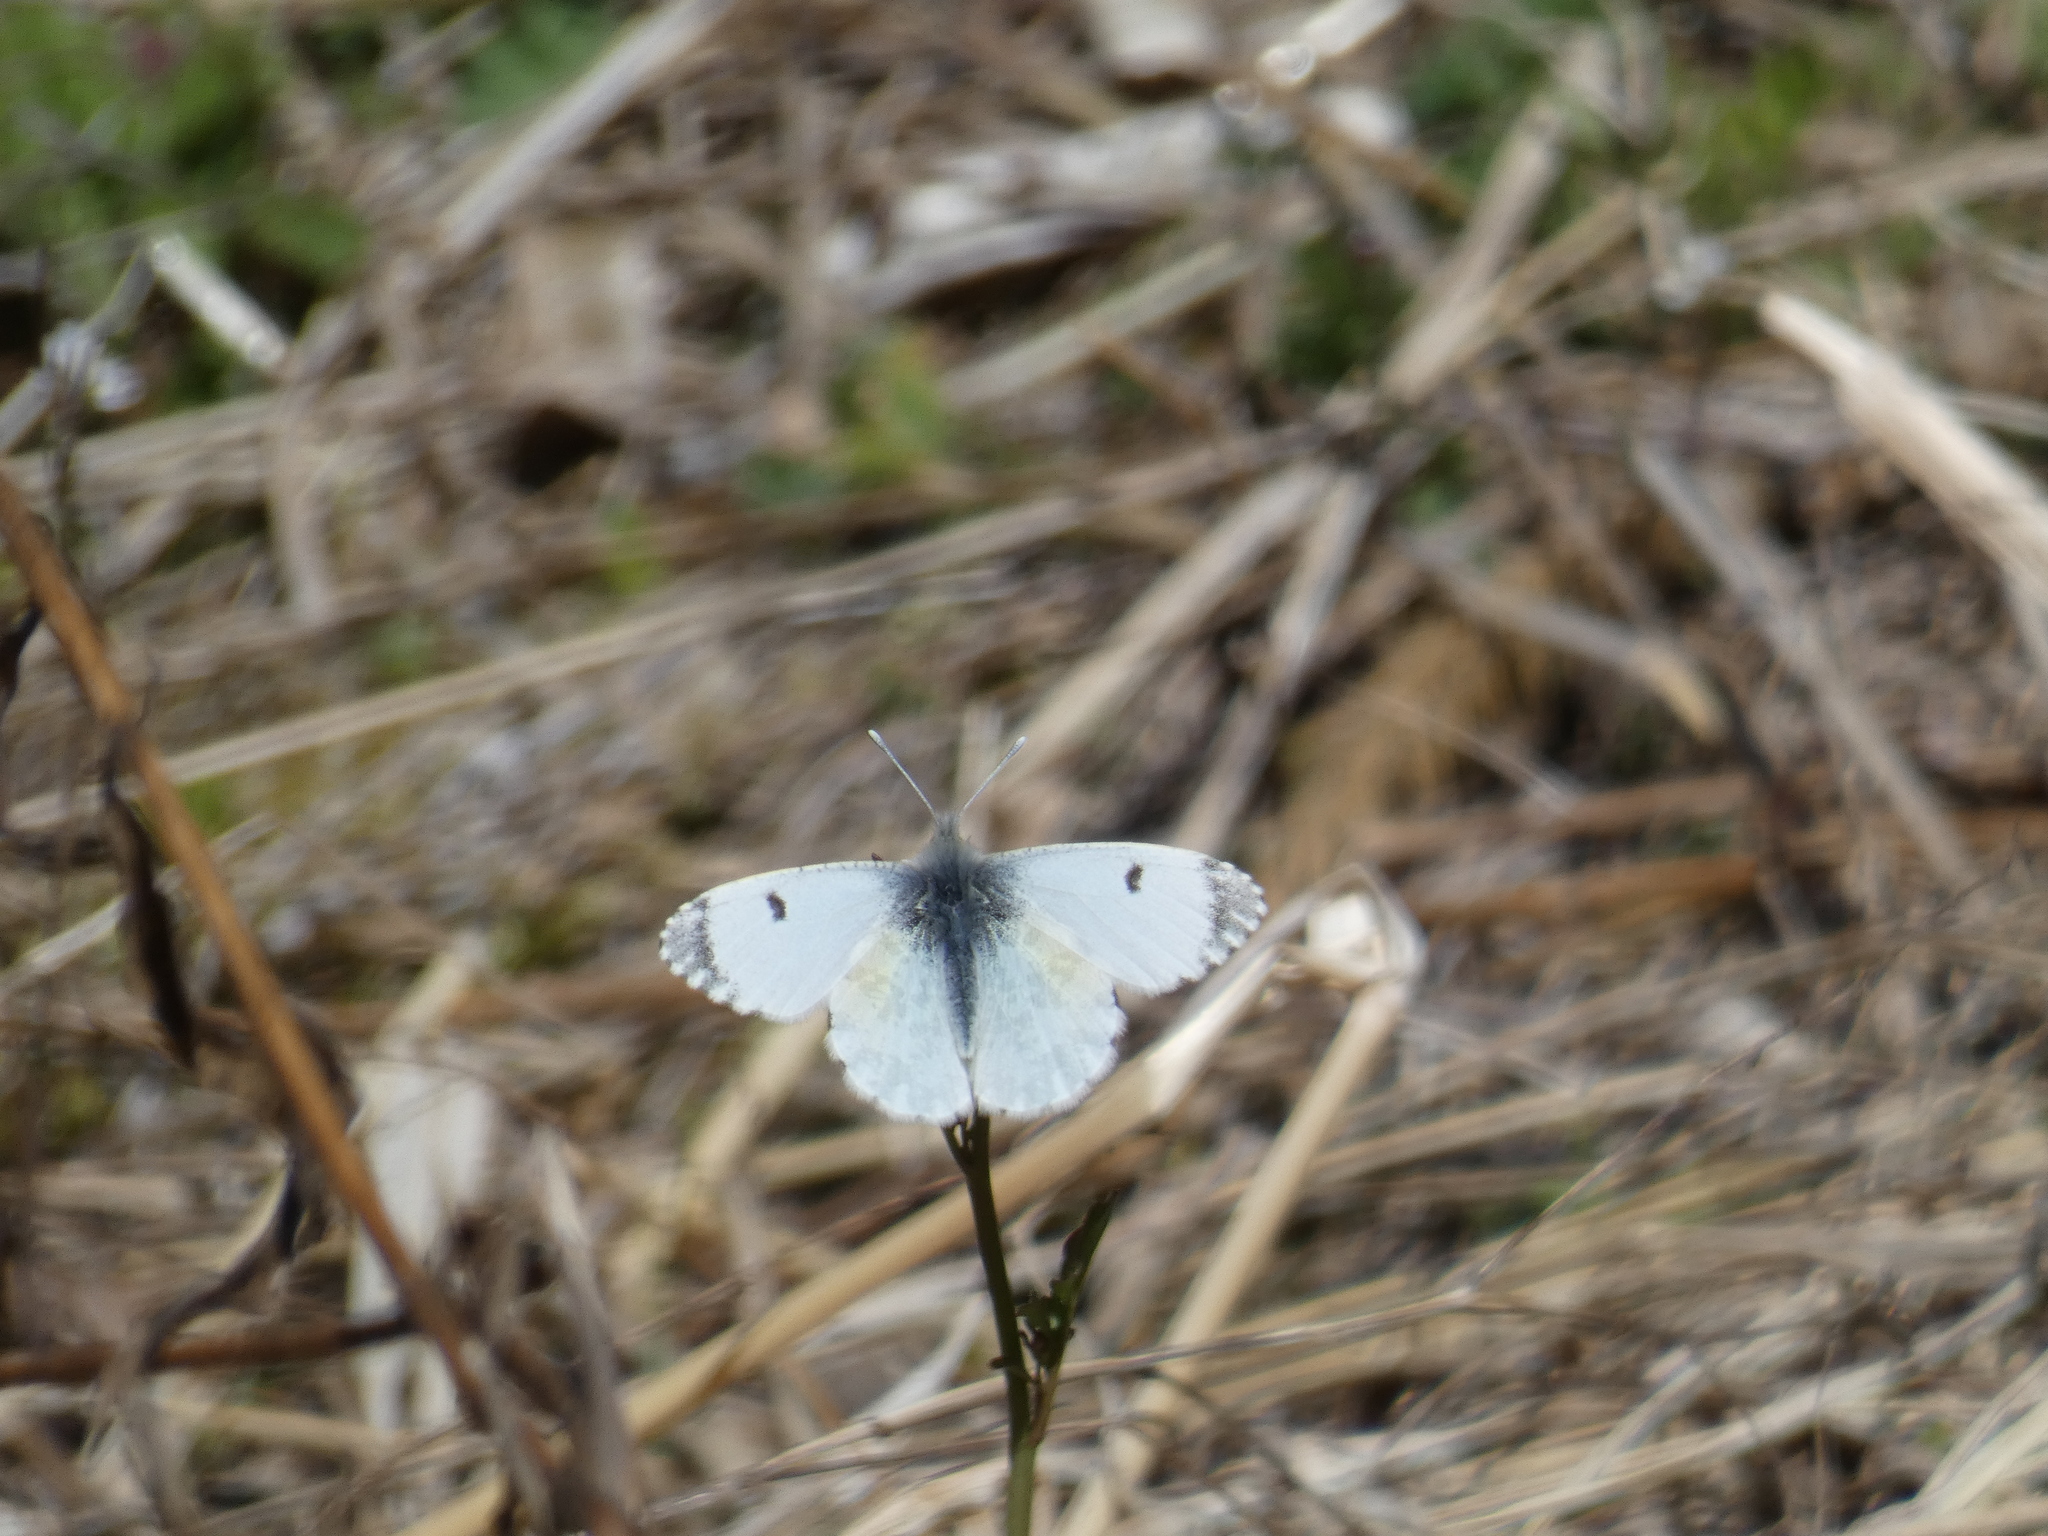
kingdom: Animalia
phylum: Arthropoda
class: Insecta
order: Lepidoptera
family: Pieridae
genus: Anthocharis
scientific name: Anthocharis cardamines
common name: Orange-tip
